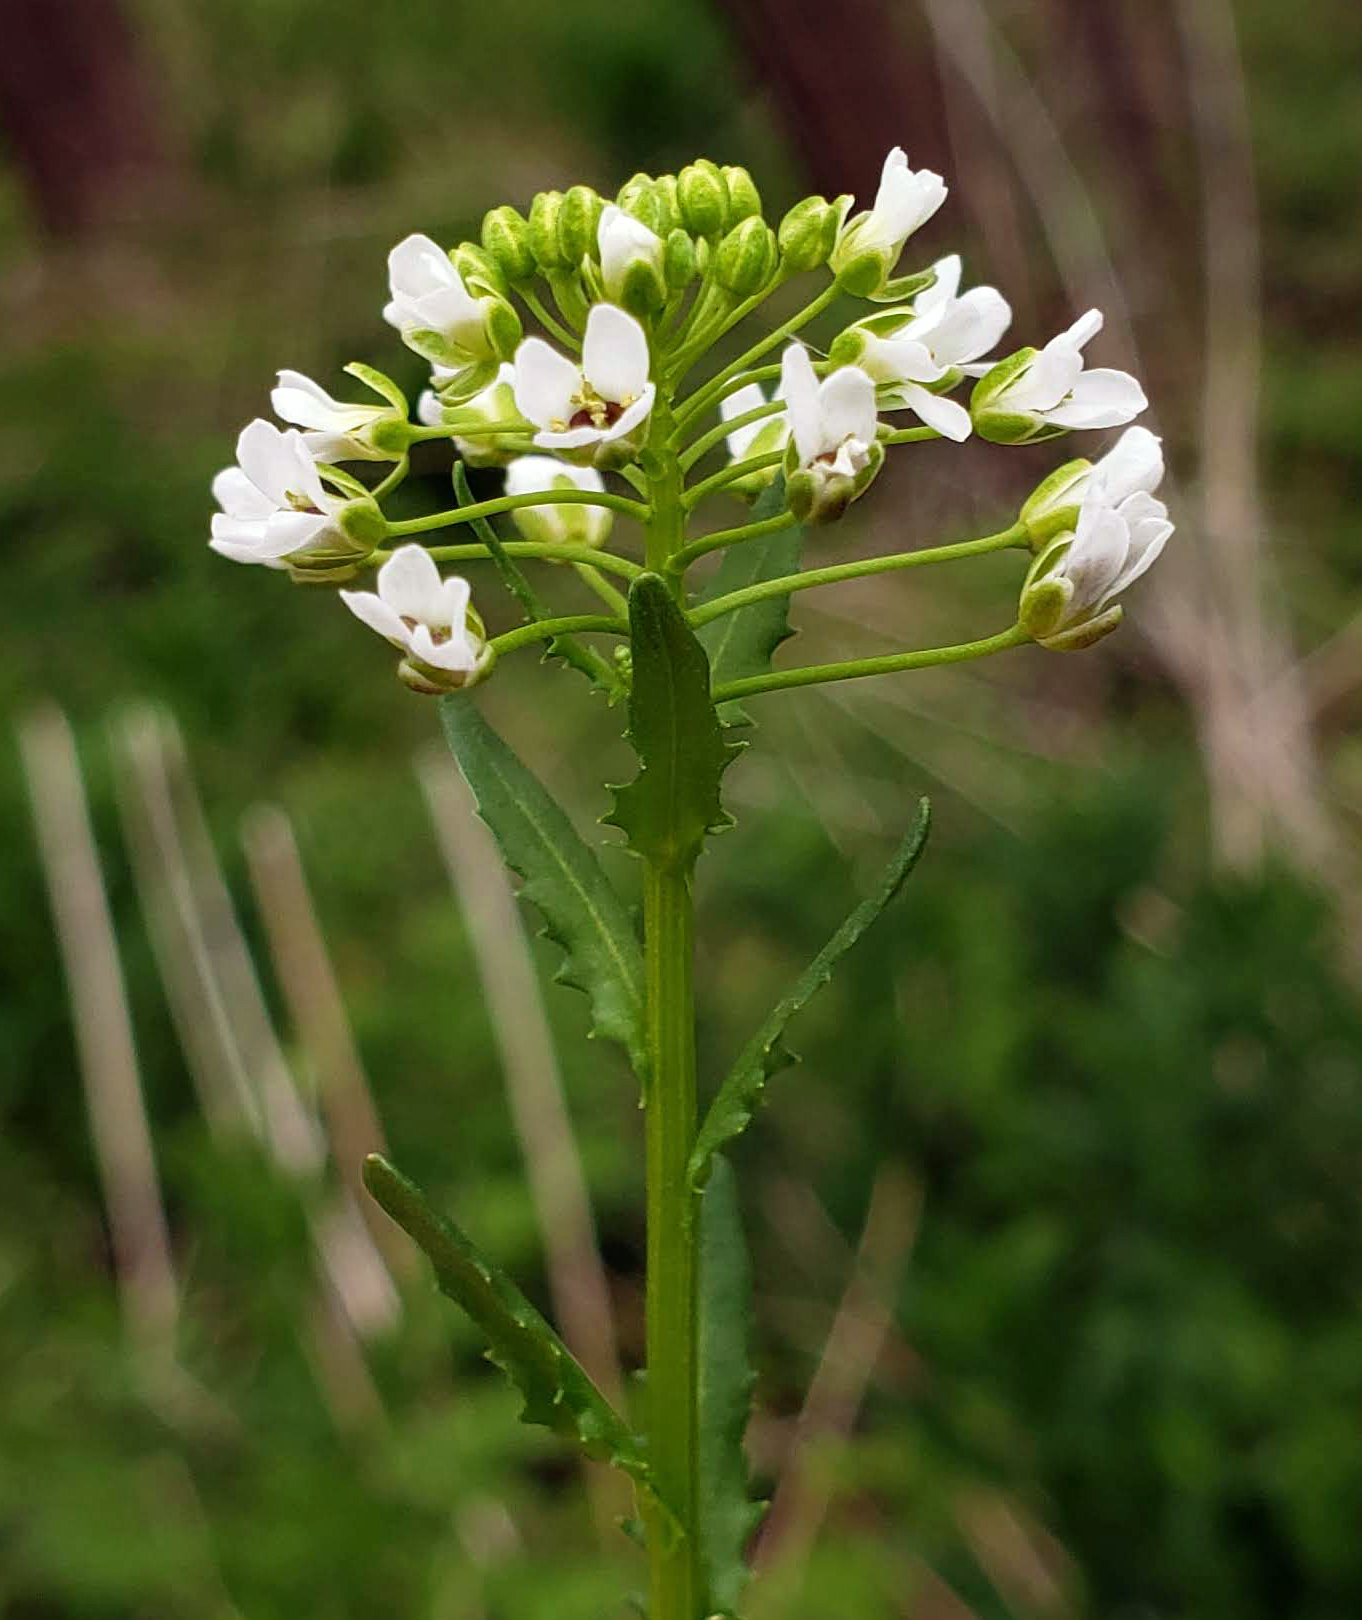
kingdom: Plantae
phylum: Tracheophyta
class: Magnoliopsida
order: Brassicales
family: Brassicaceae
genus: Thlaspi
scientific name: Thlaspi arvense
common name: Field pennycress
